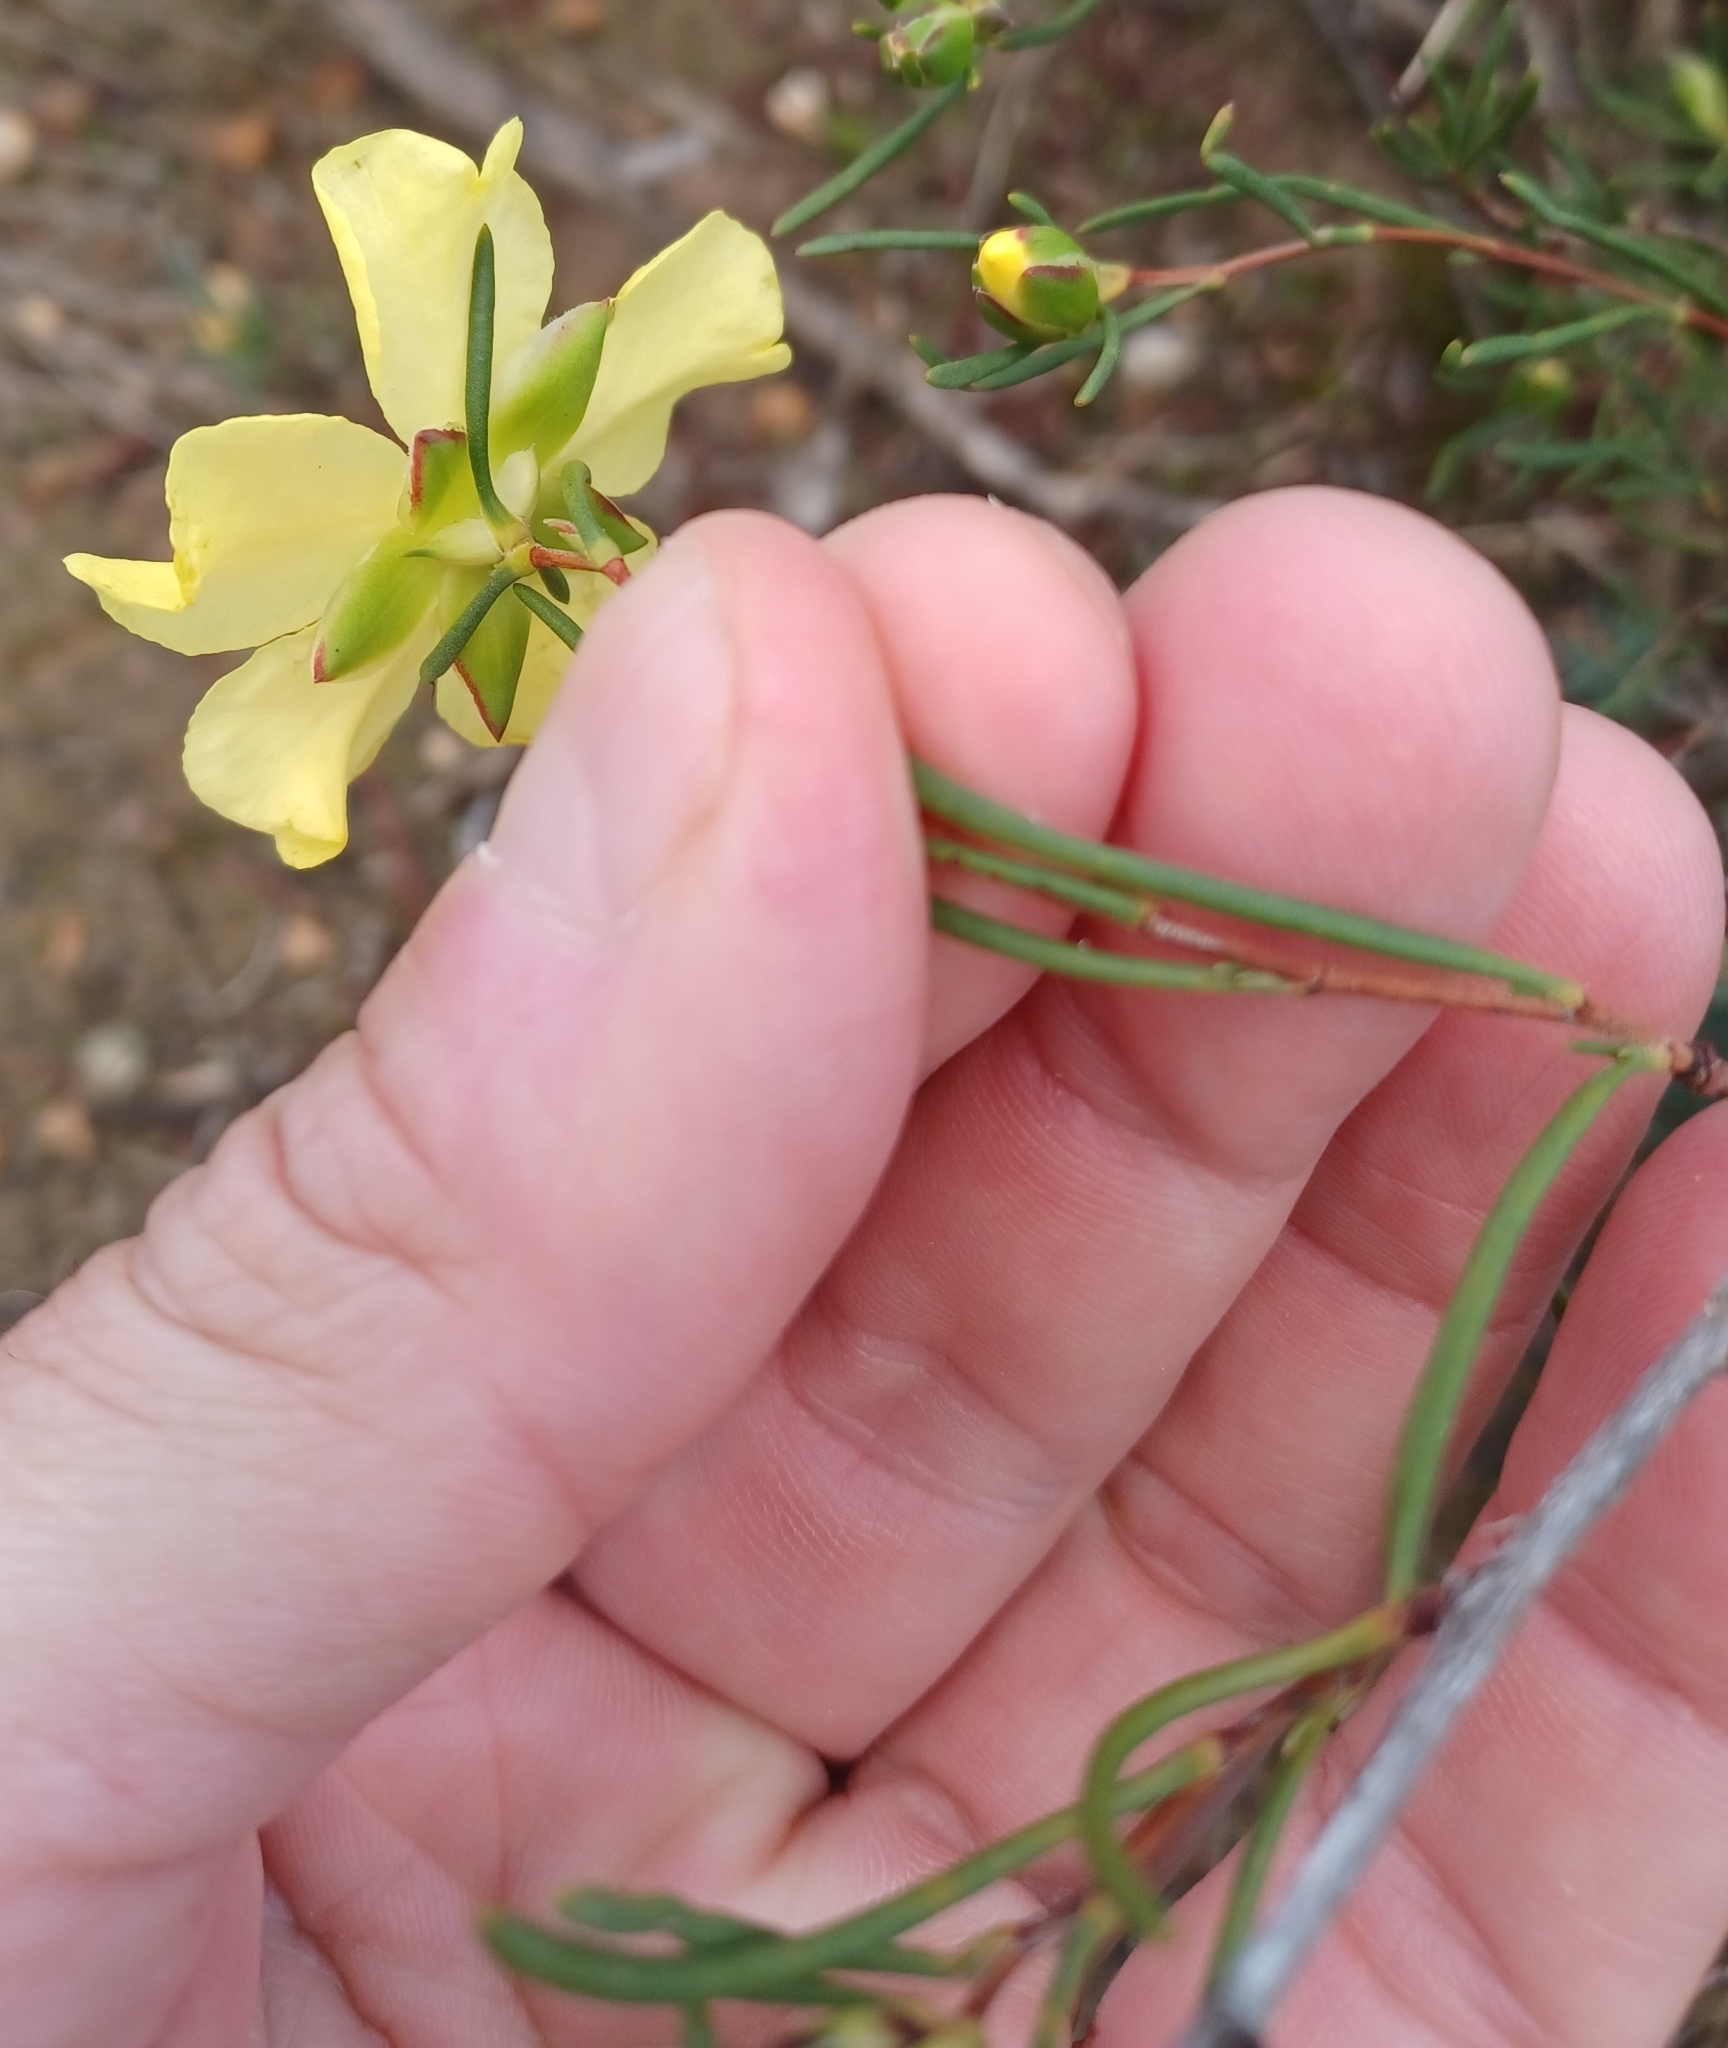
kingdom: Plantae
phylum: Tracheophyta
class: Magnoliopsida
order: Dilleniales
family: Dilleniaceae
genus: Hibbertia
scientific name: Hibbertia virgata
